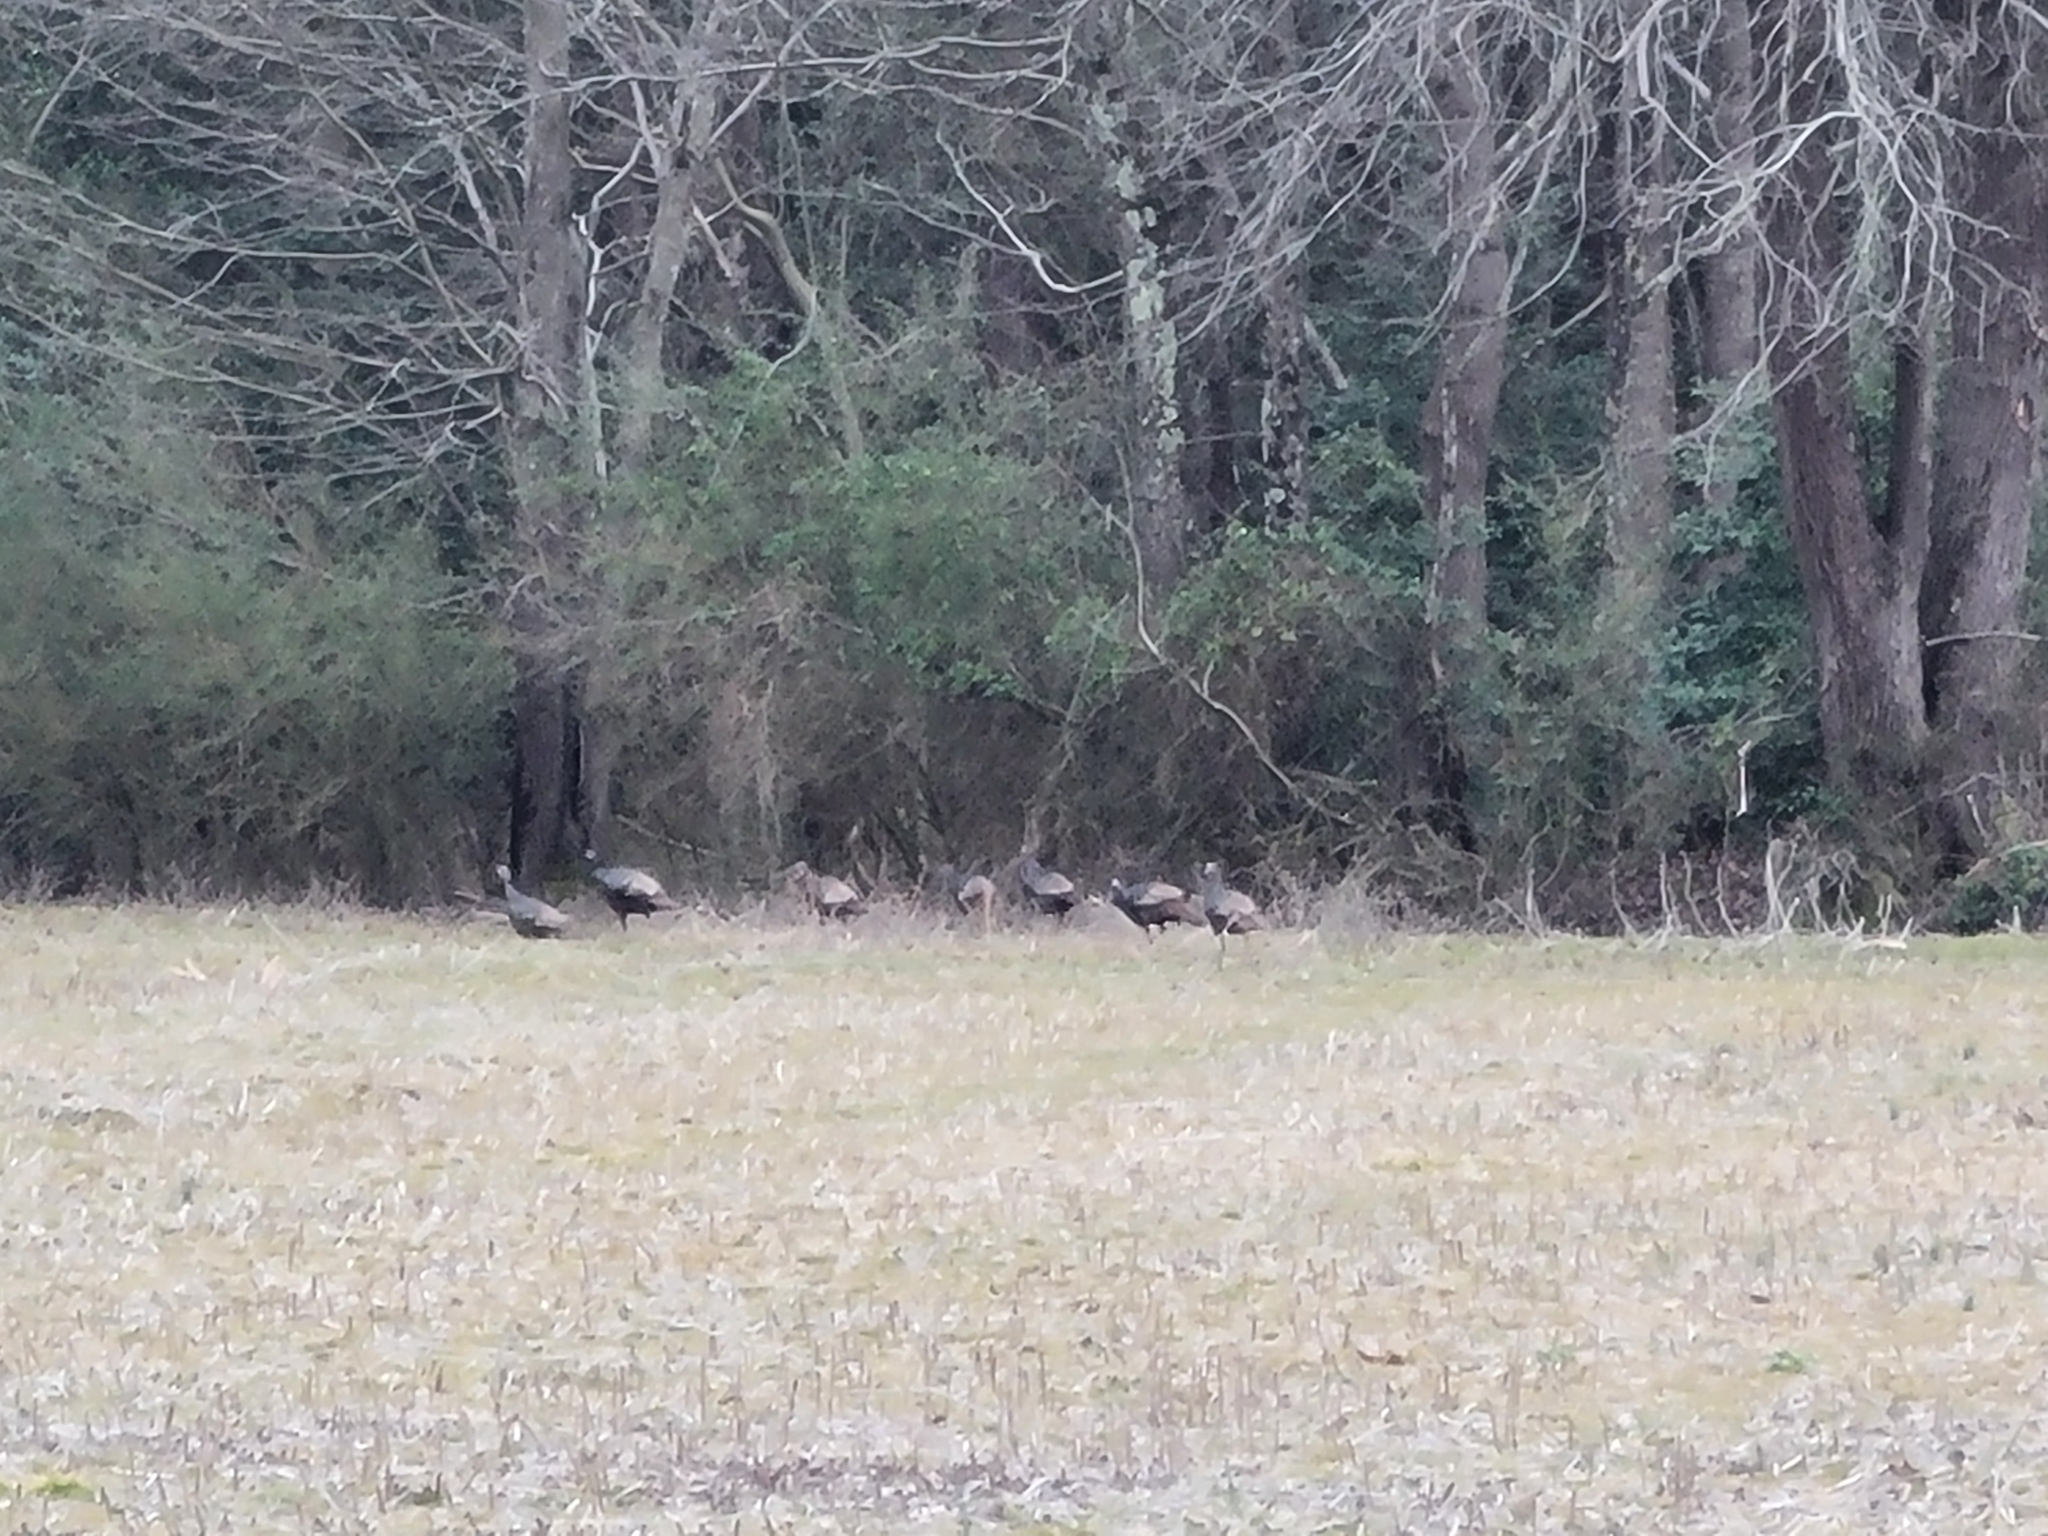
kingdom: Animalia
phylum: Chordata
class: Aves
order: Galliformes
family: Phasianidae
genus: Meleagris
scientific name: Meleagris gallopavo
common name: Wild turkey
